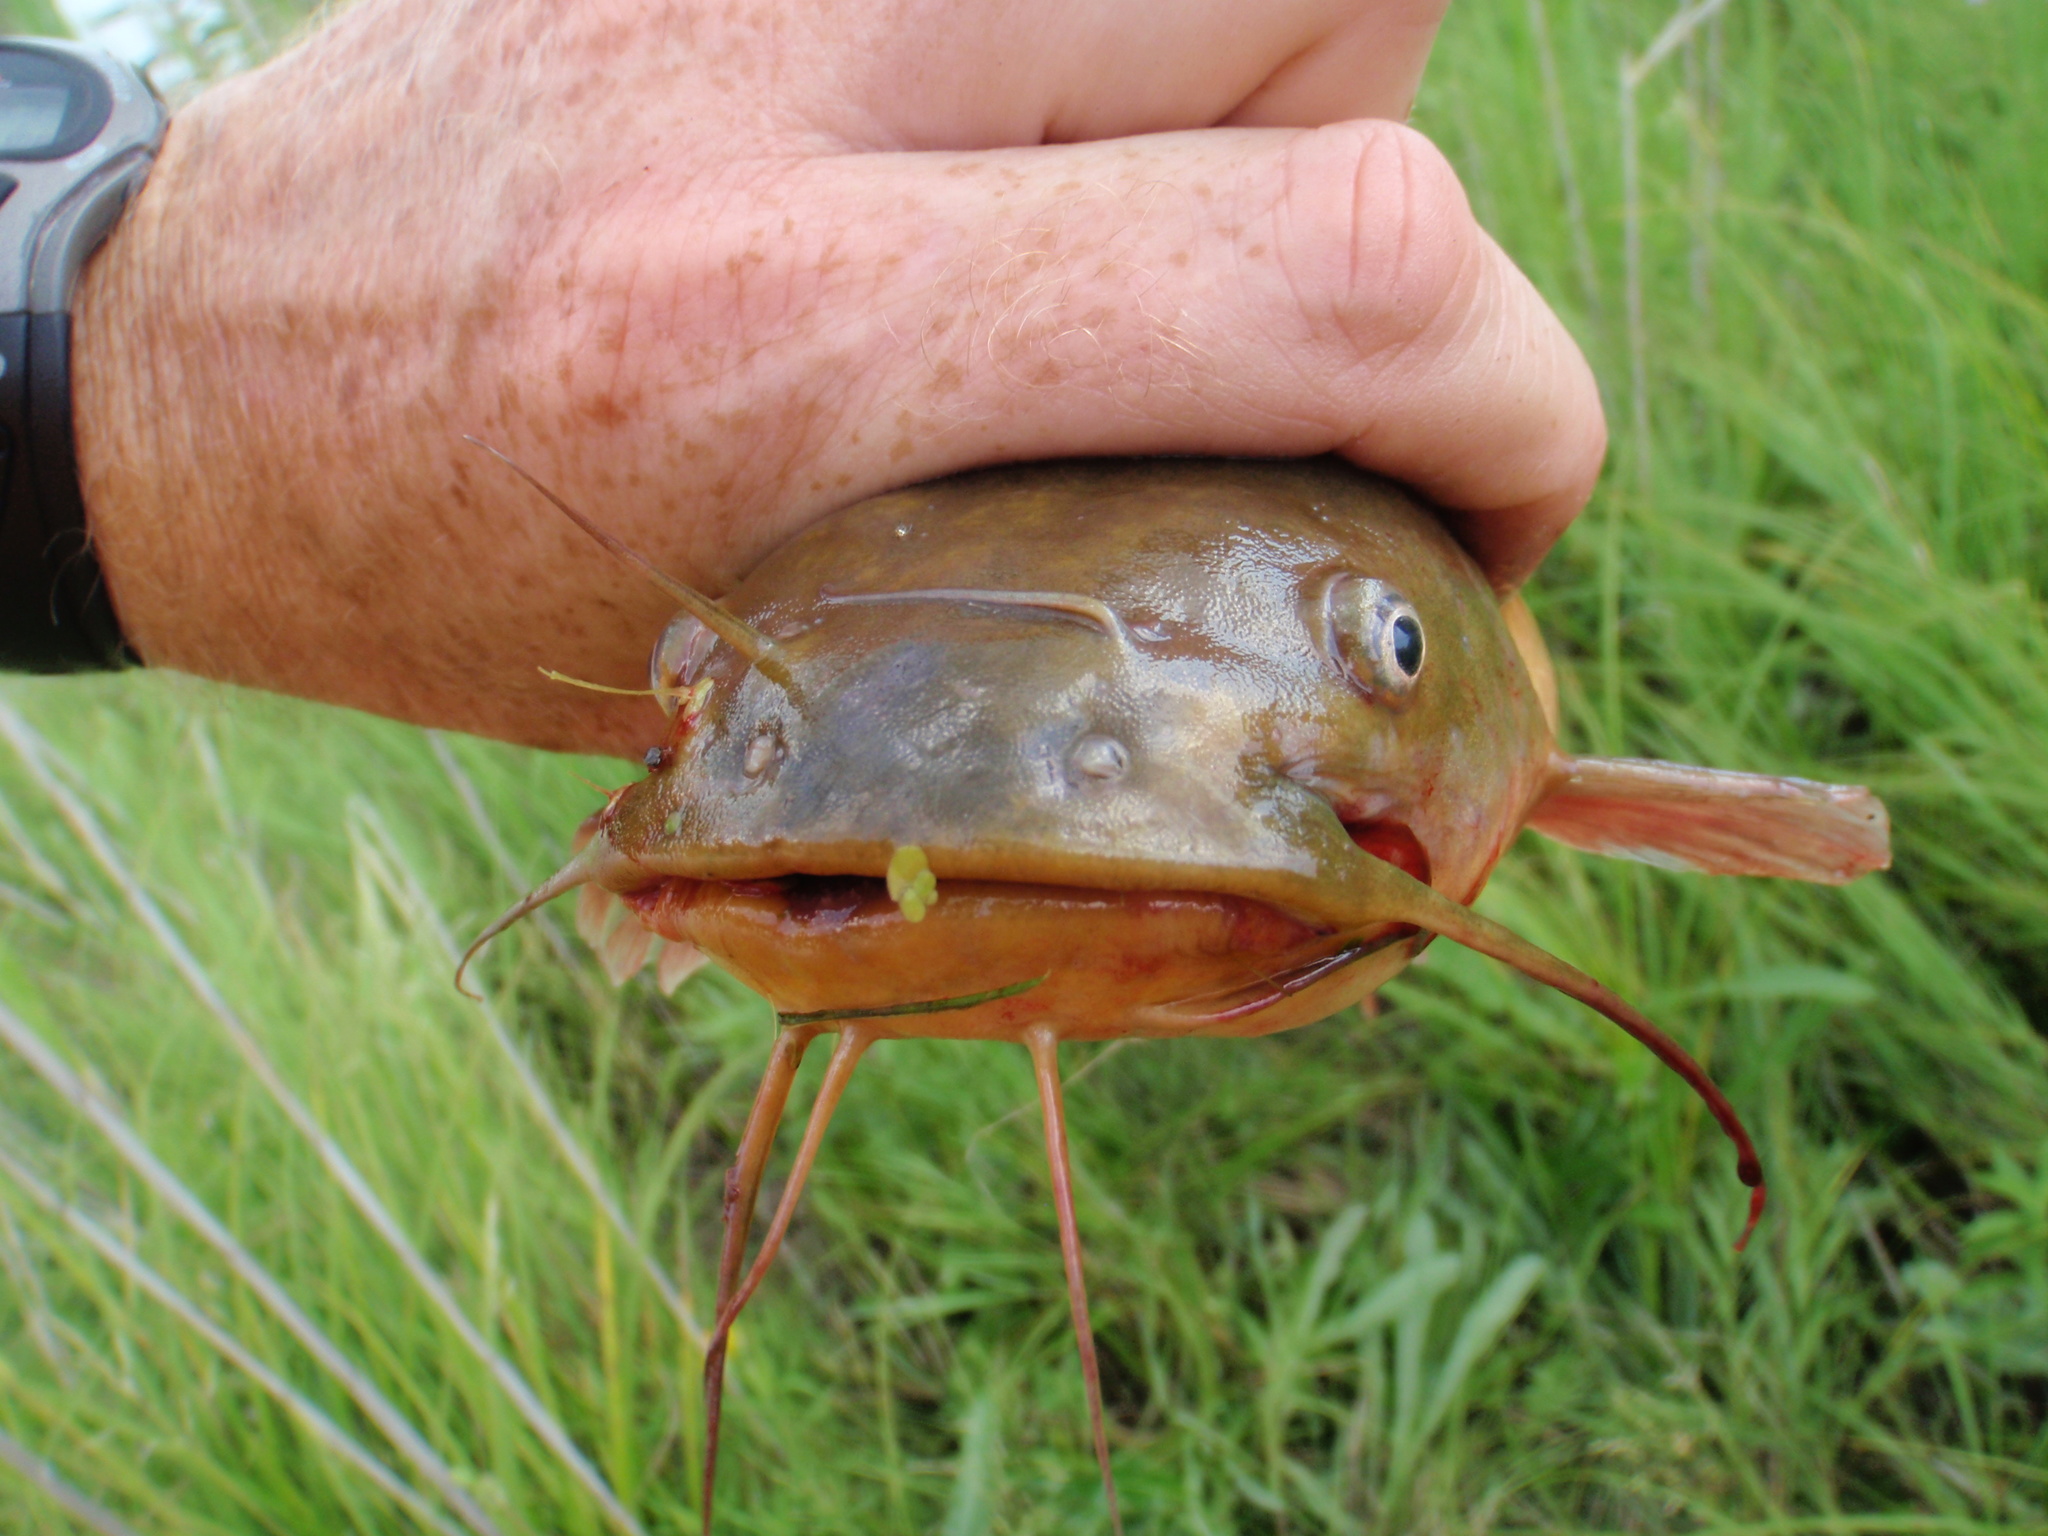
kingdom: Animalia
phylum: Chordata
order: Siluriformes
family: Ictaluridae
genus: Ameiurus
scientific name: Ameiurus natalis
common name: Yellow bullhead
